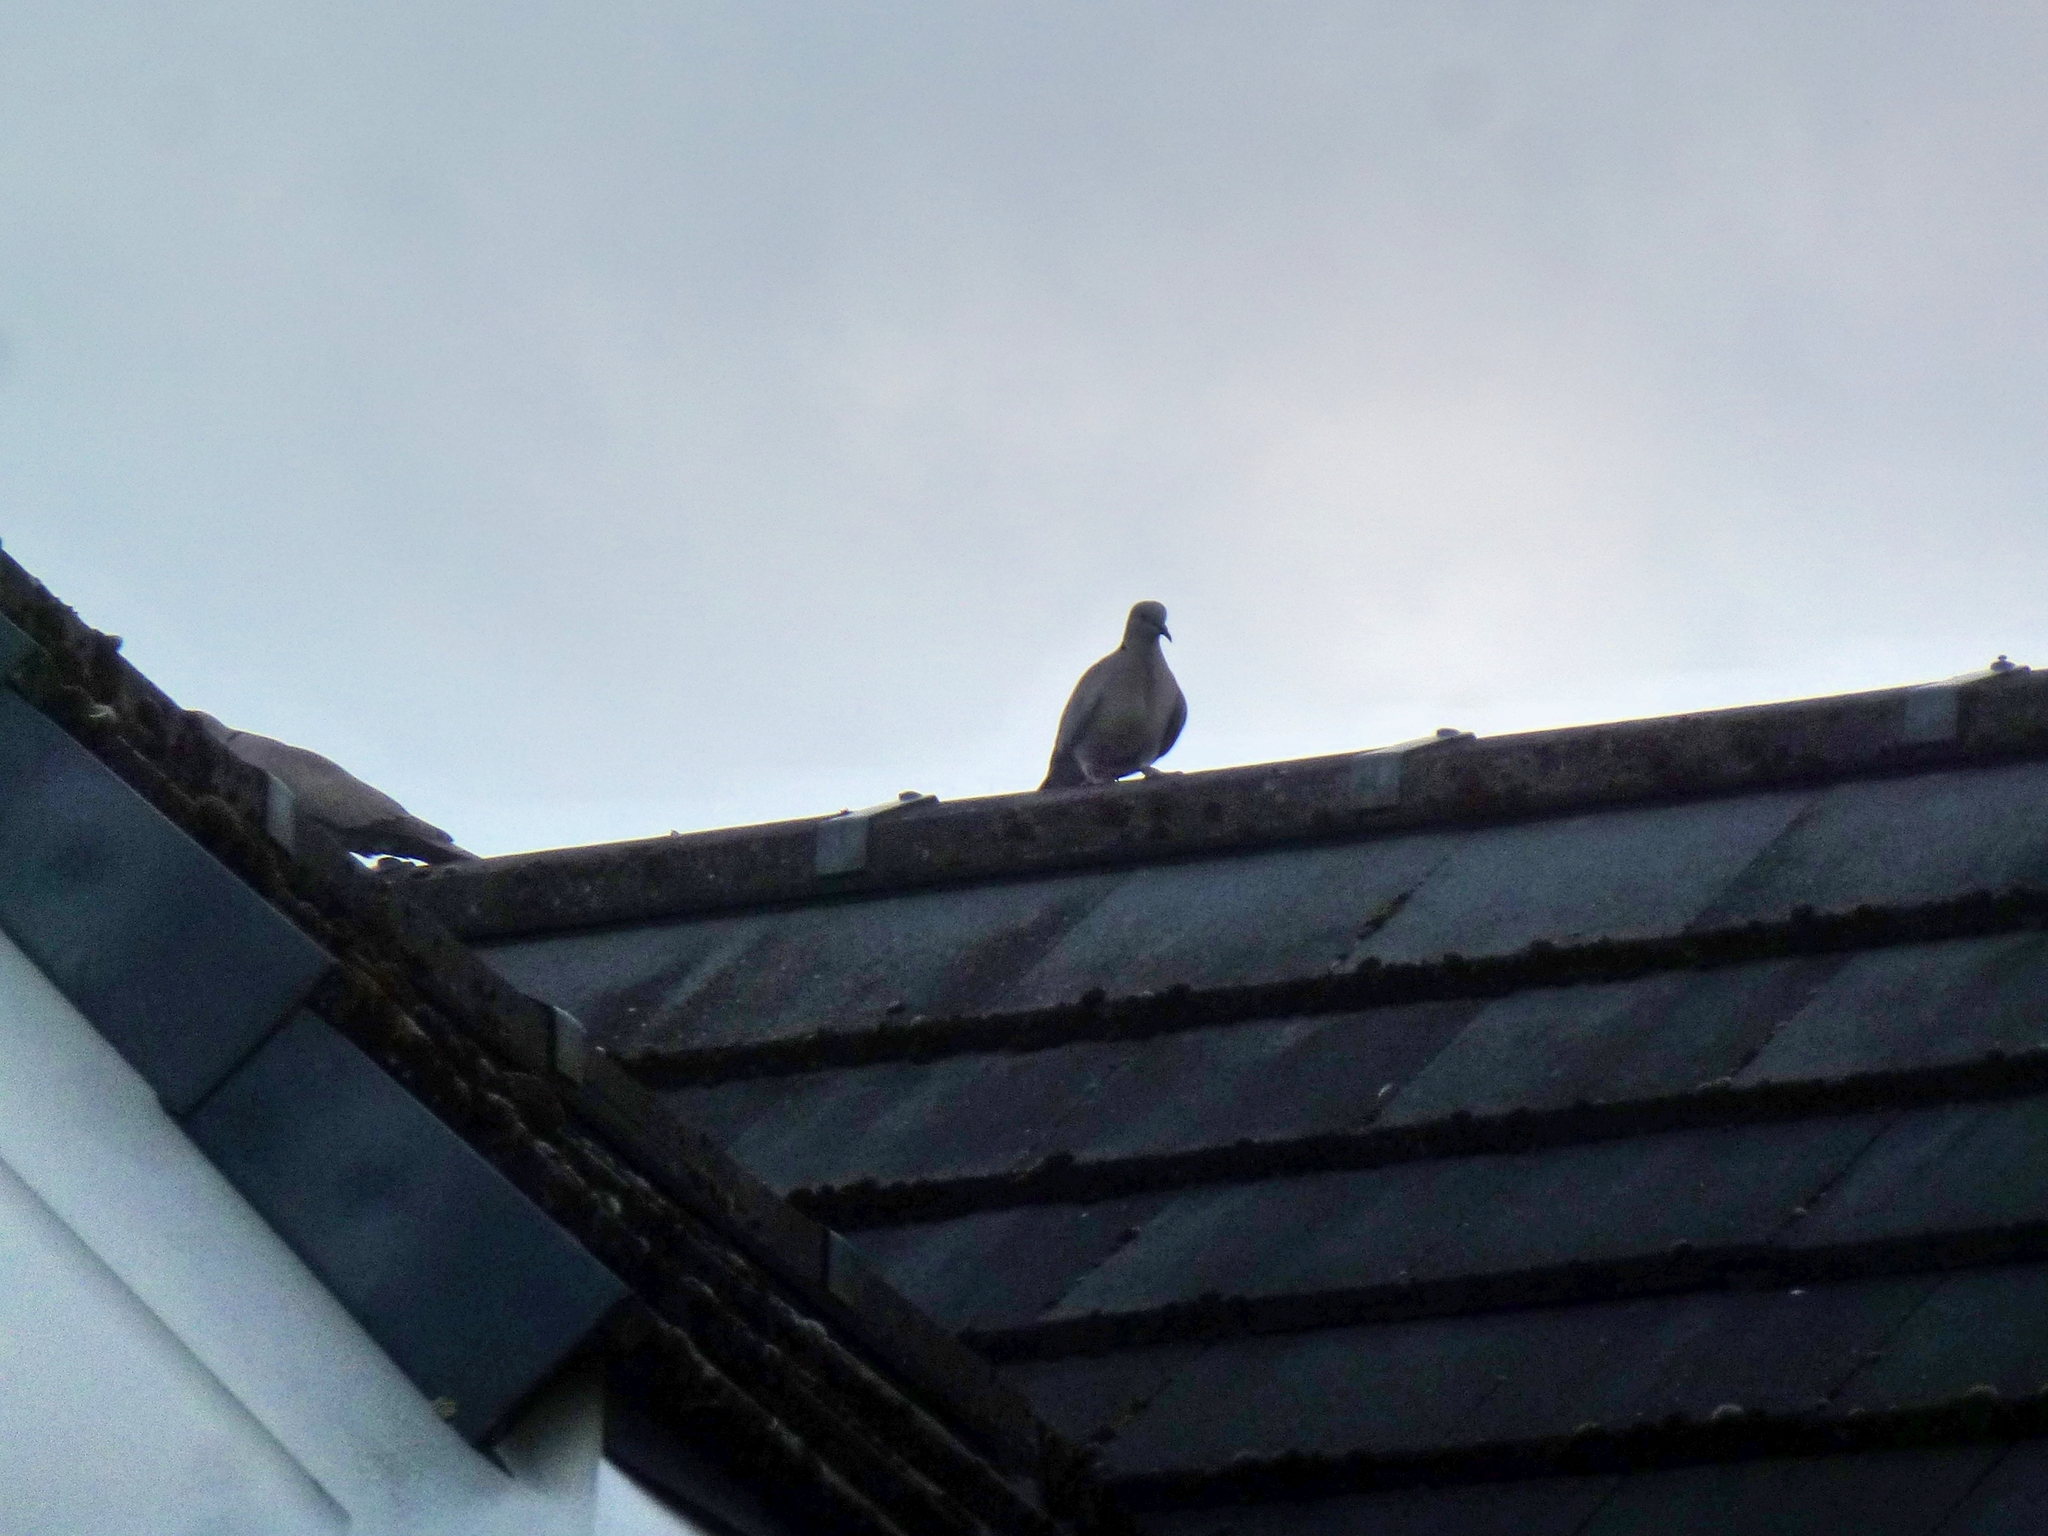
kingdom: Animalia
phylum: Chordata
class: Aves
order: Columbiformes
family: Columbidae
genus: Streptopelia
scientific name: Streptopelia decaocto
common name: Eurasian collared dove
